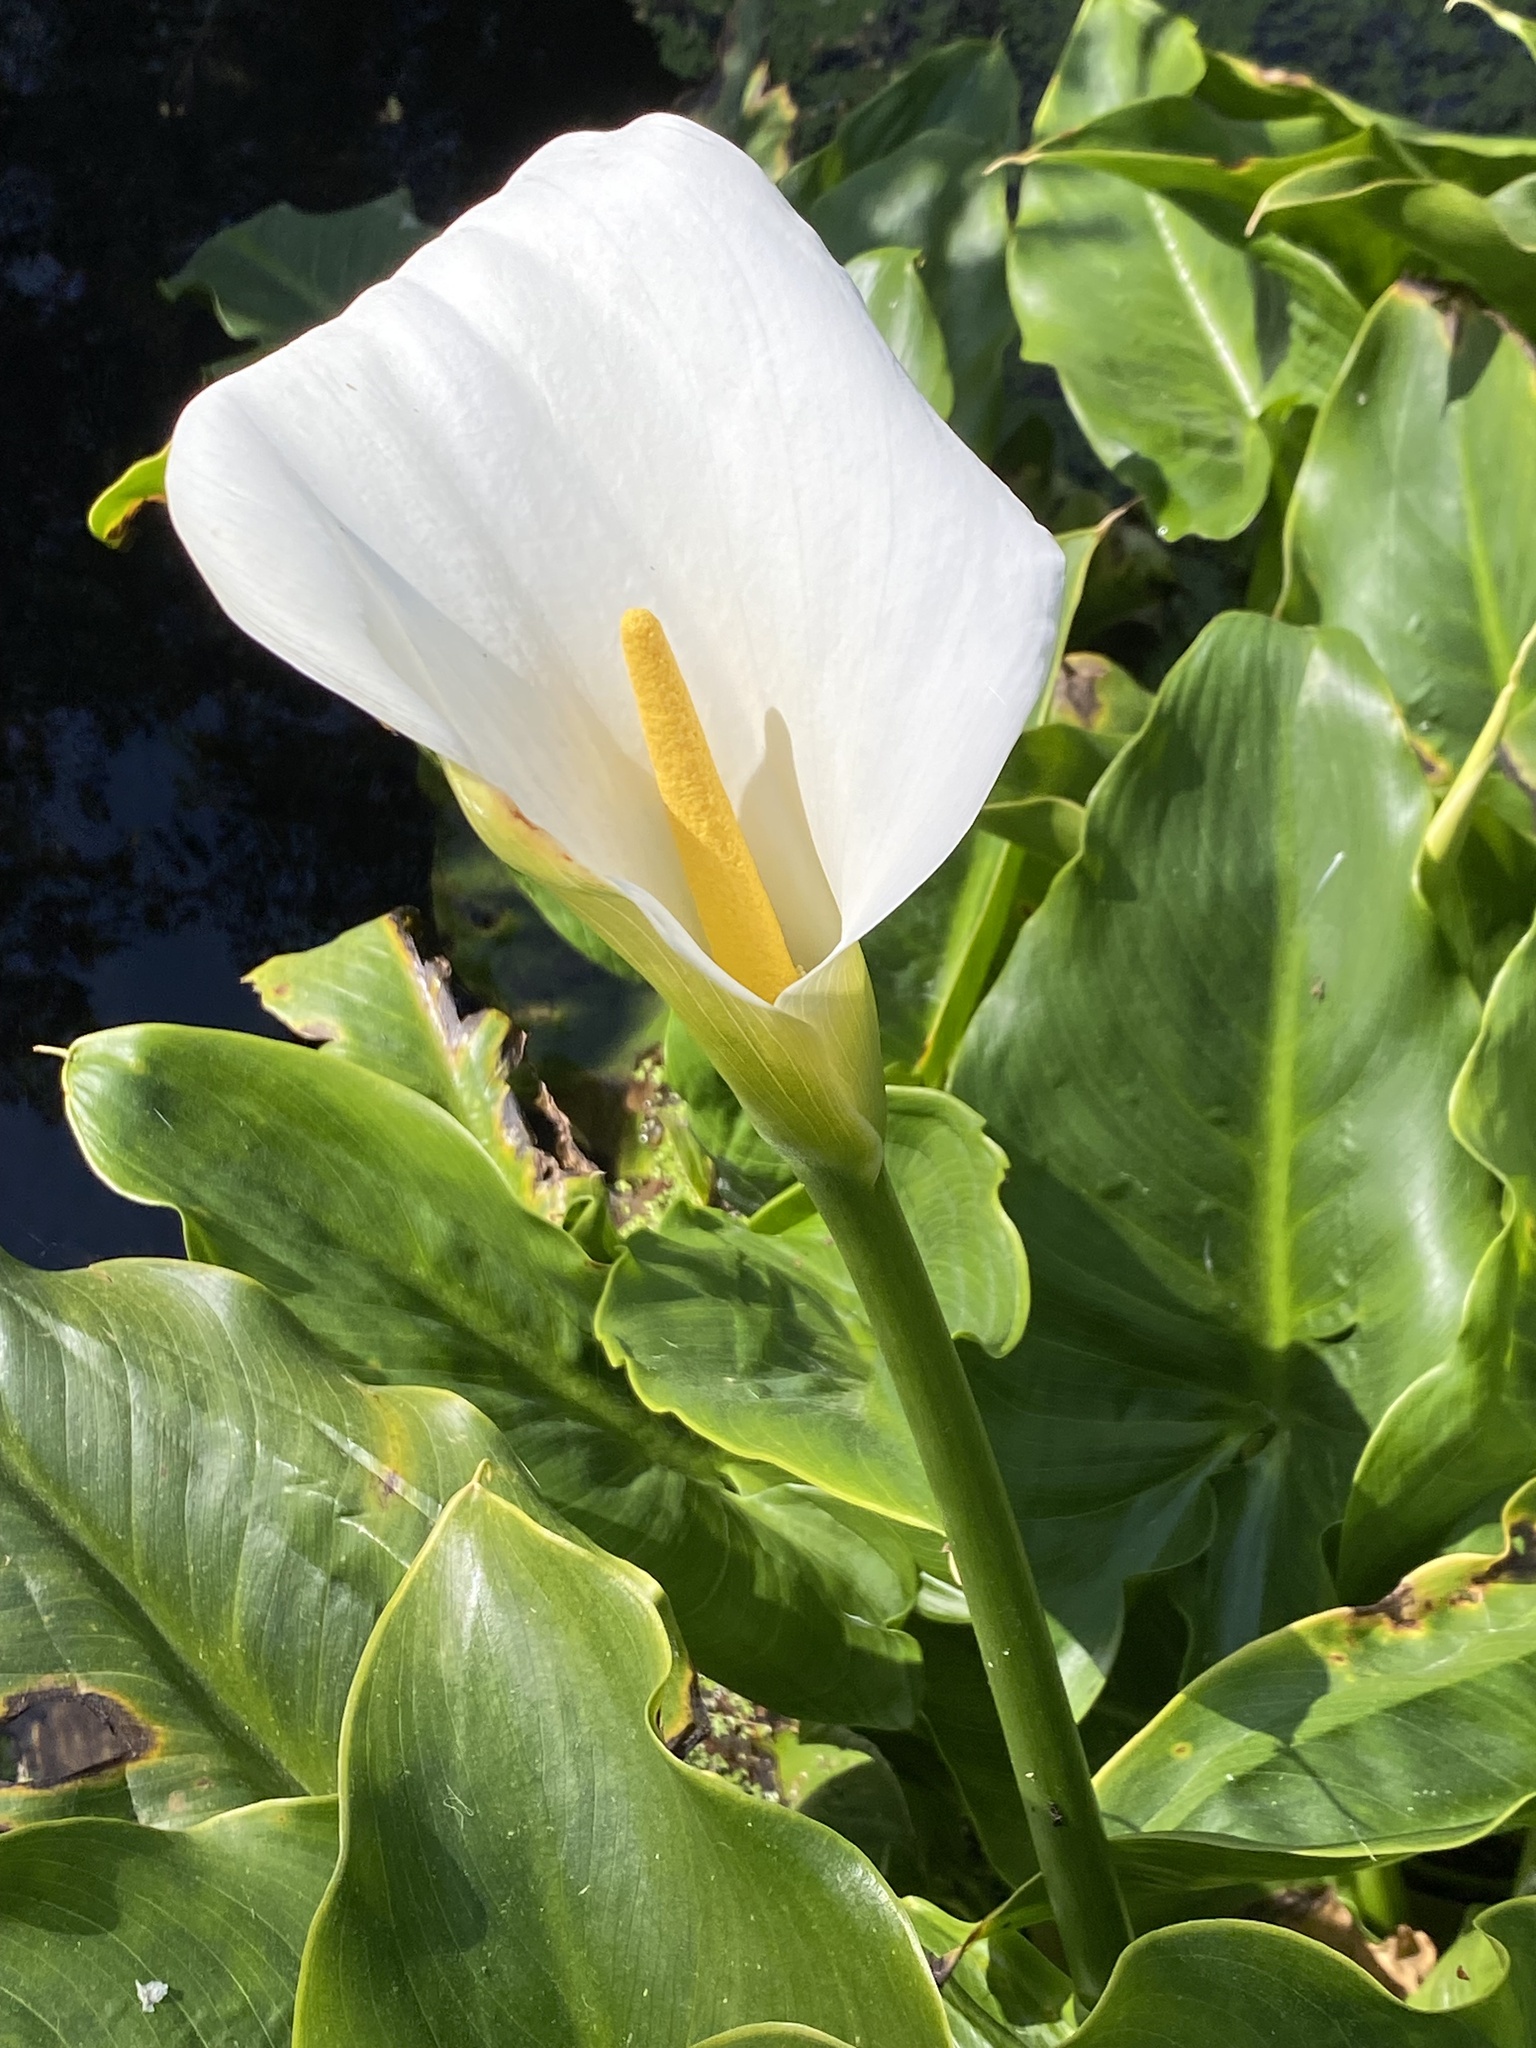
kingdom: Plantae
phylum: Tracheophyta
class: Liliopsida
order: Alismatales
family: Araceae
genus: Zantedeschia
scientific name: Zantedeschia aethiopica
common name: Altar-lily
